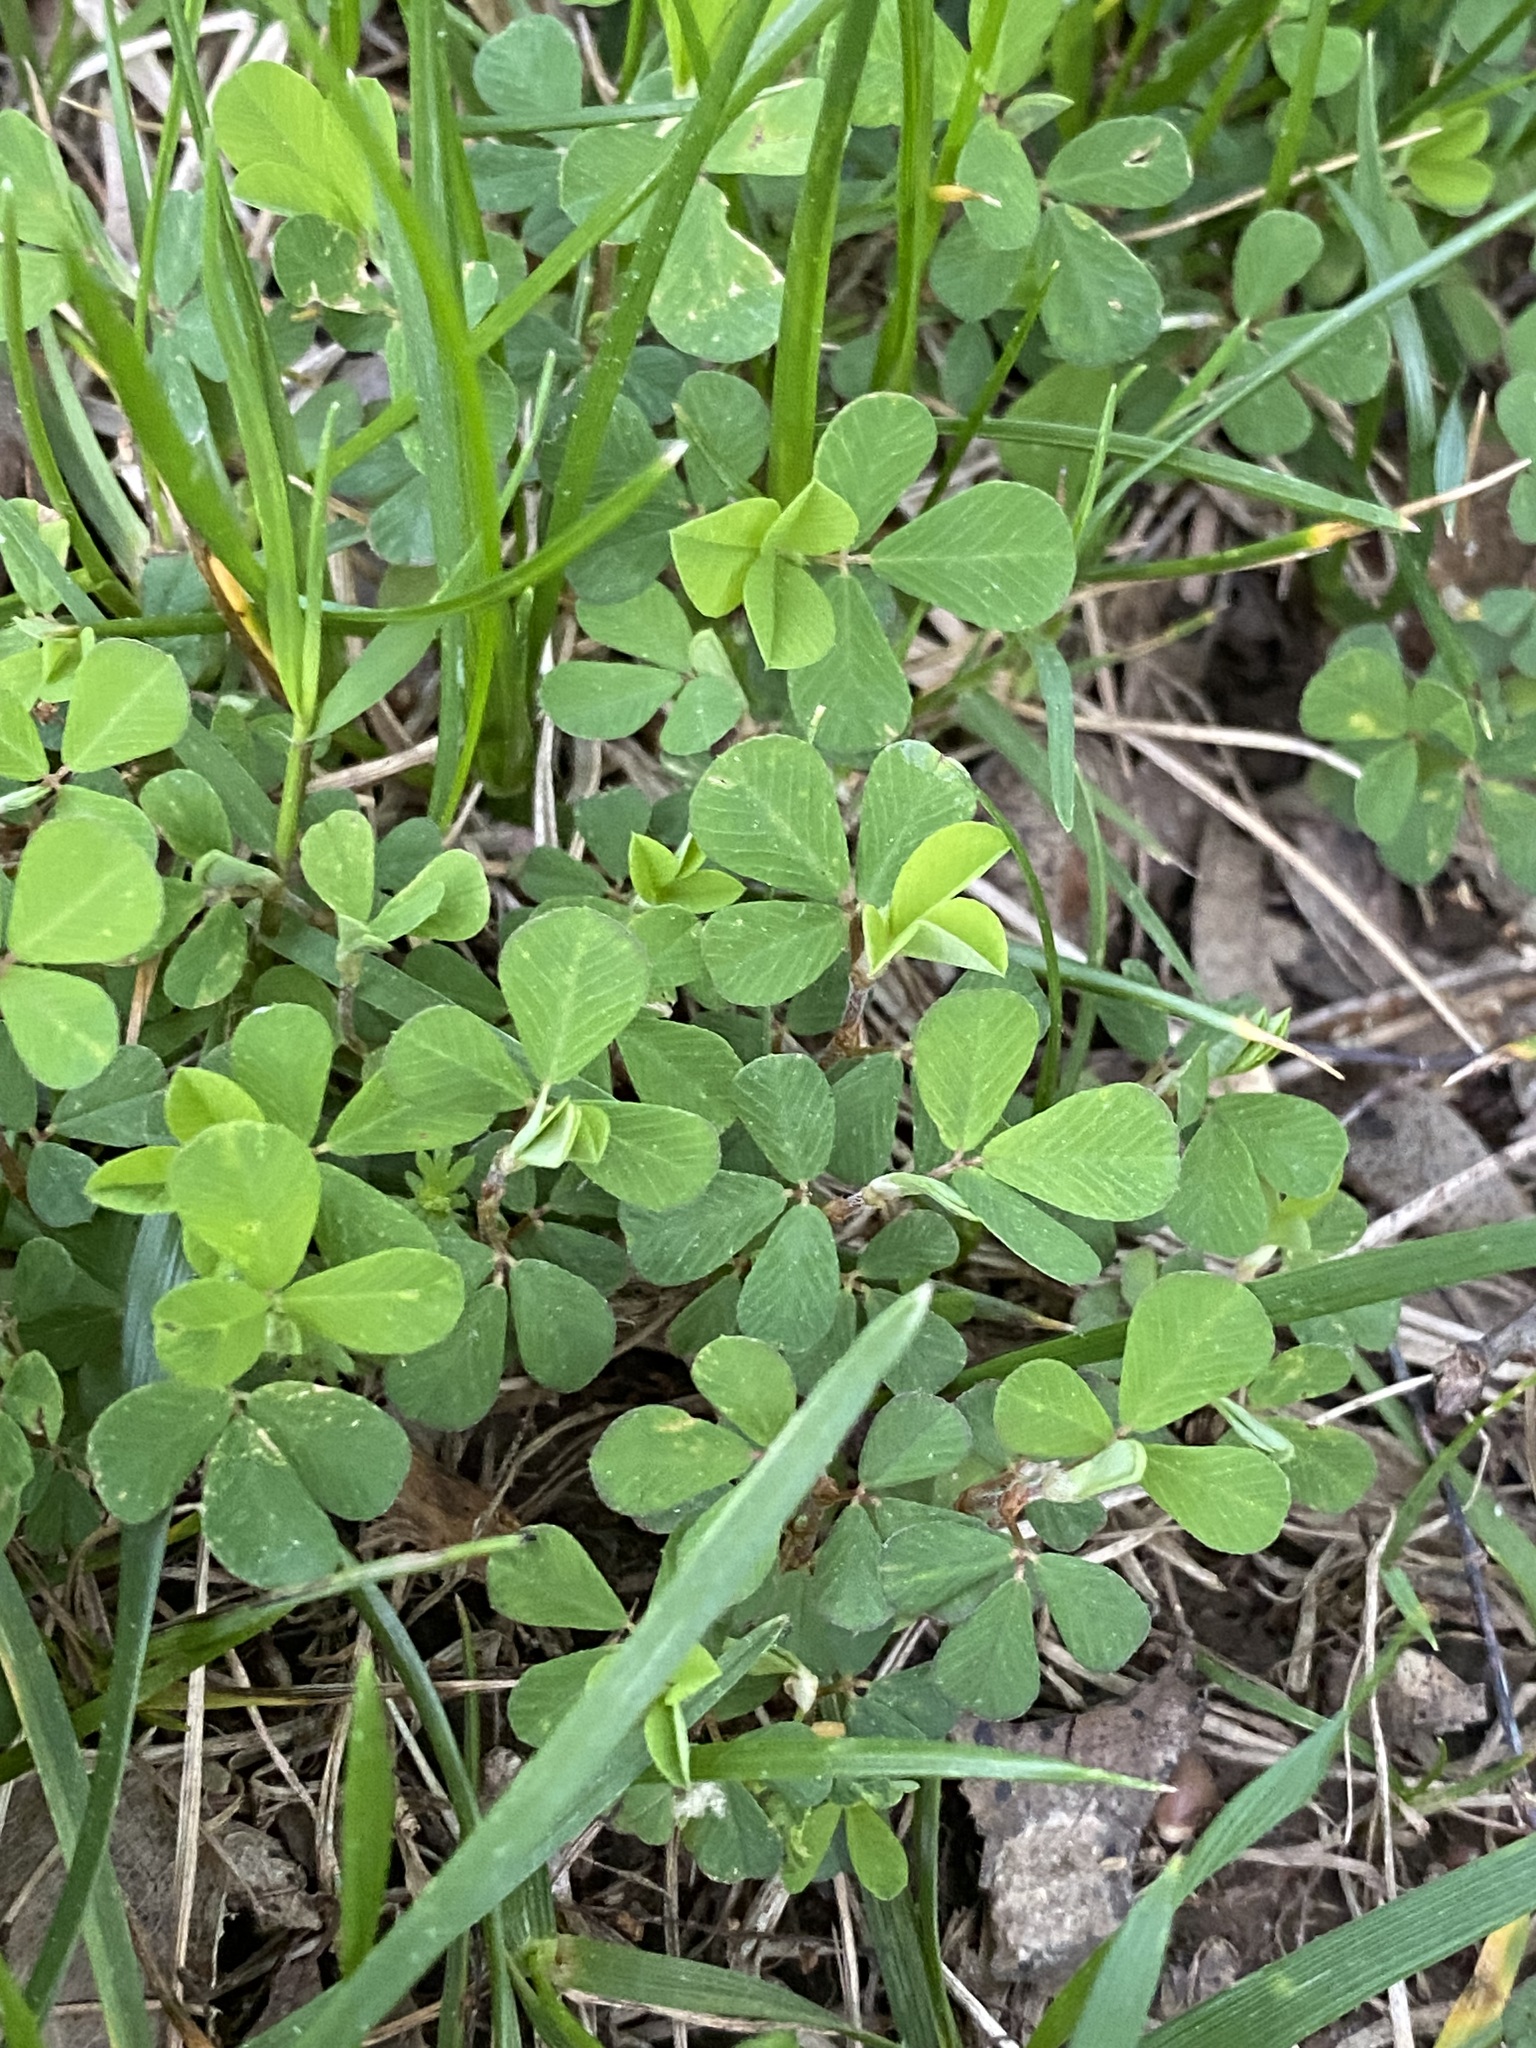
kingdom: Plantae
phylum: Tracheophyta
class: Magnoliopsida
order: Fabales
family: Fabaceae
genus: Trifolium
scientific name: Trifolium dubium
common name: Suckling clover
